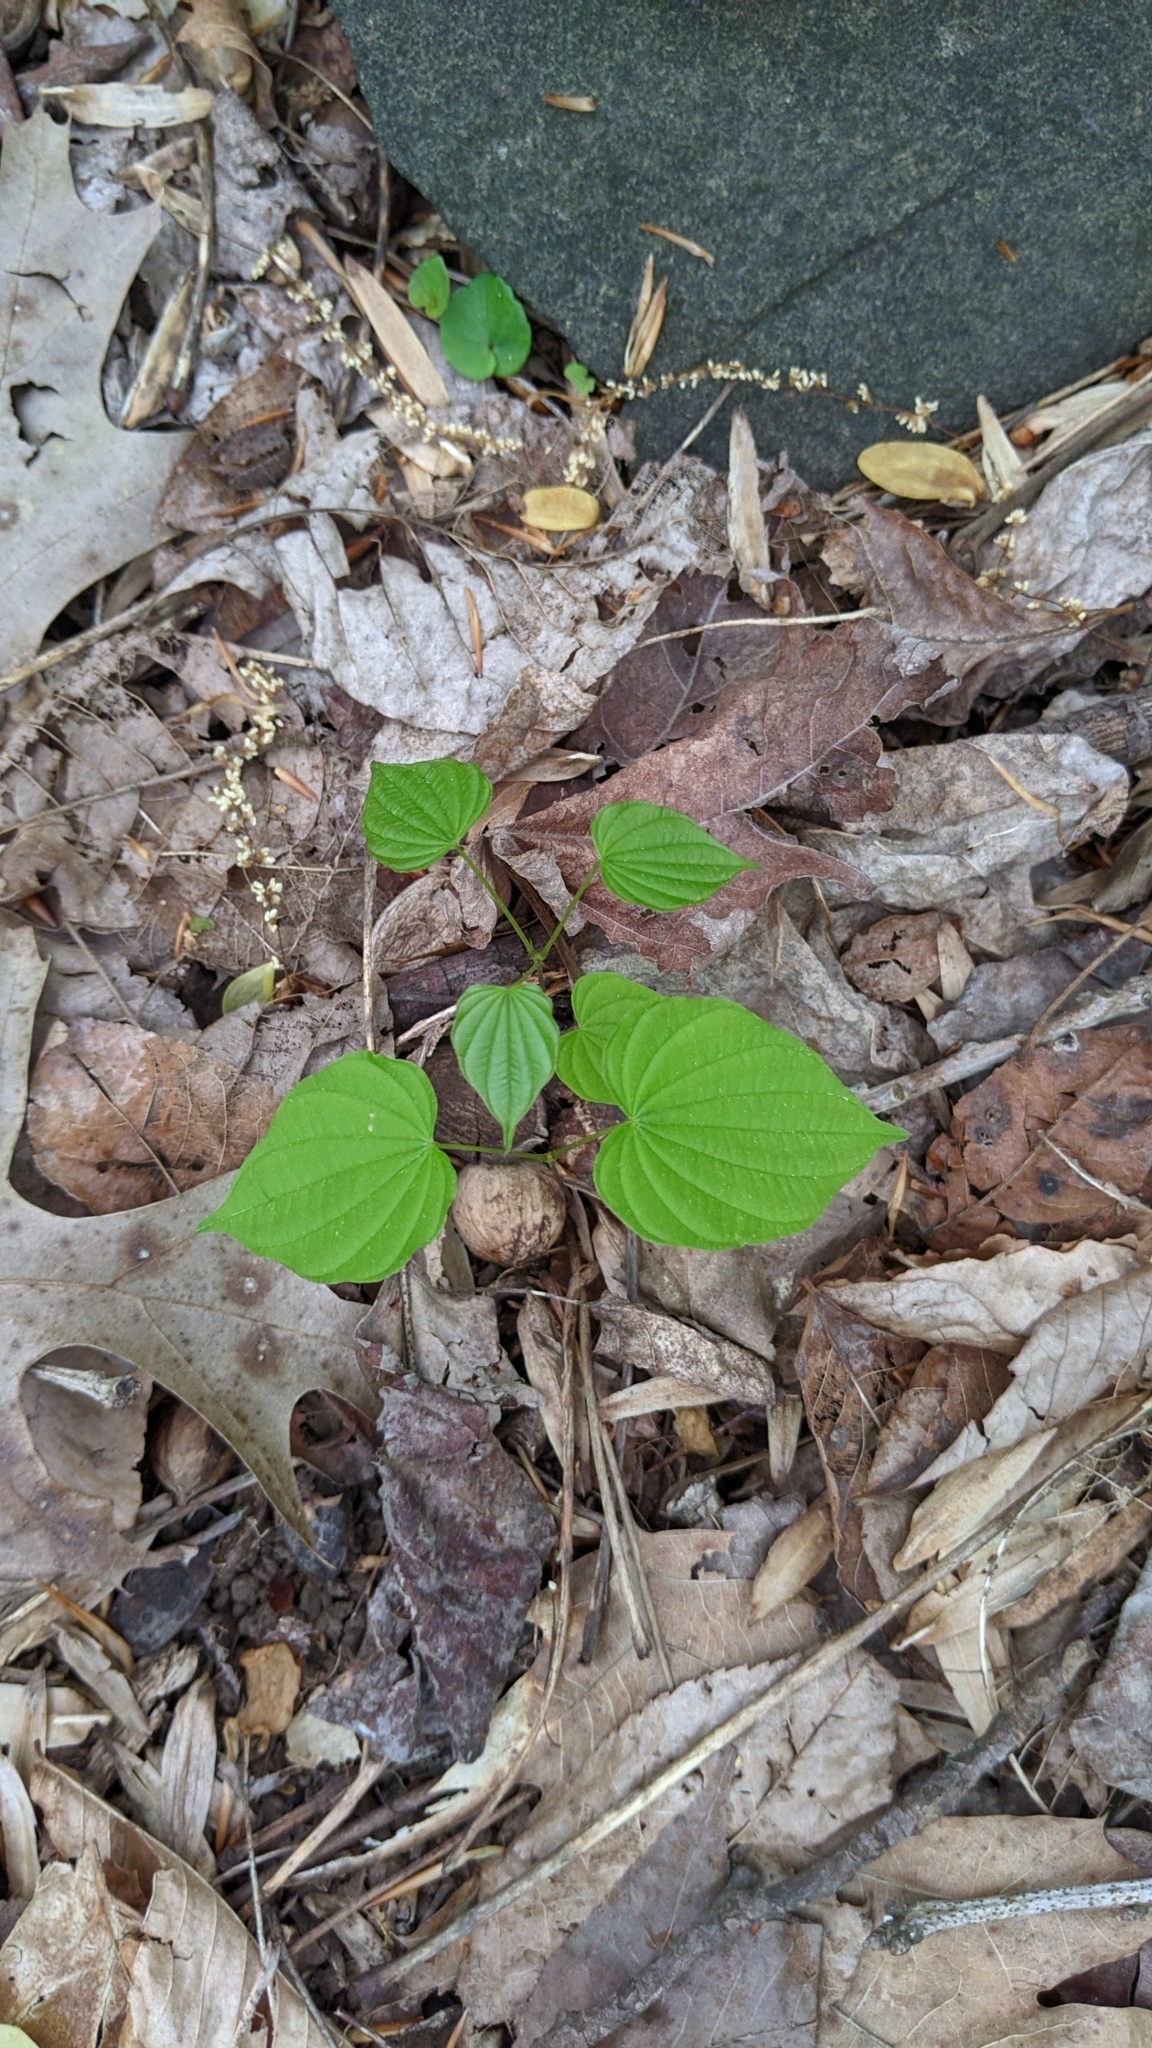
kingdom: Plantae
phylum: Tracheophyta
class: Liliopsida
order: Dioscoreales
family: Dioscoreaceae
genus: Dioscorea
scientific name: Dioscorea villosa
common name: Wild yam
